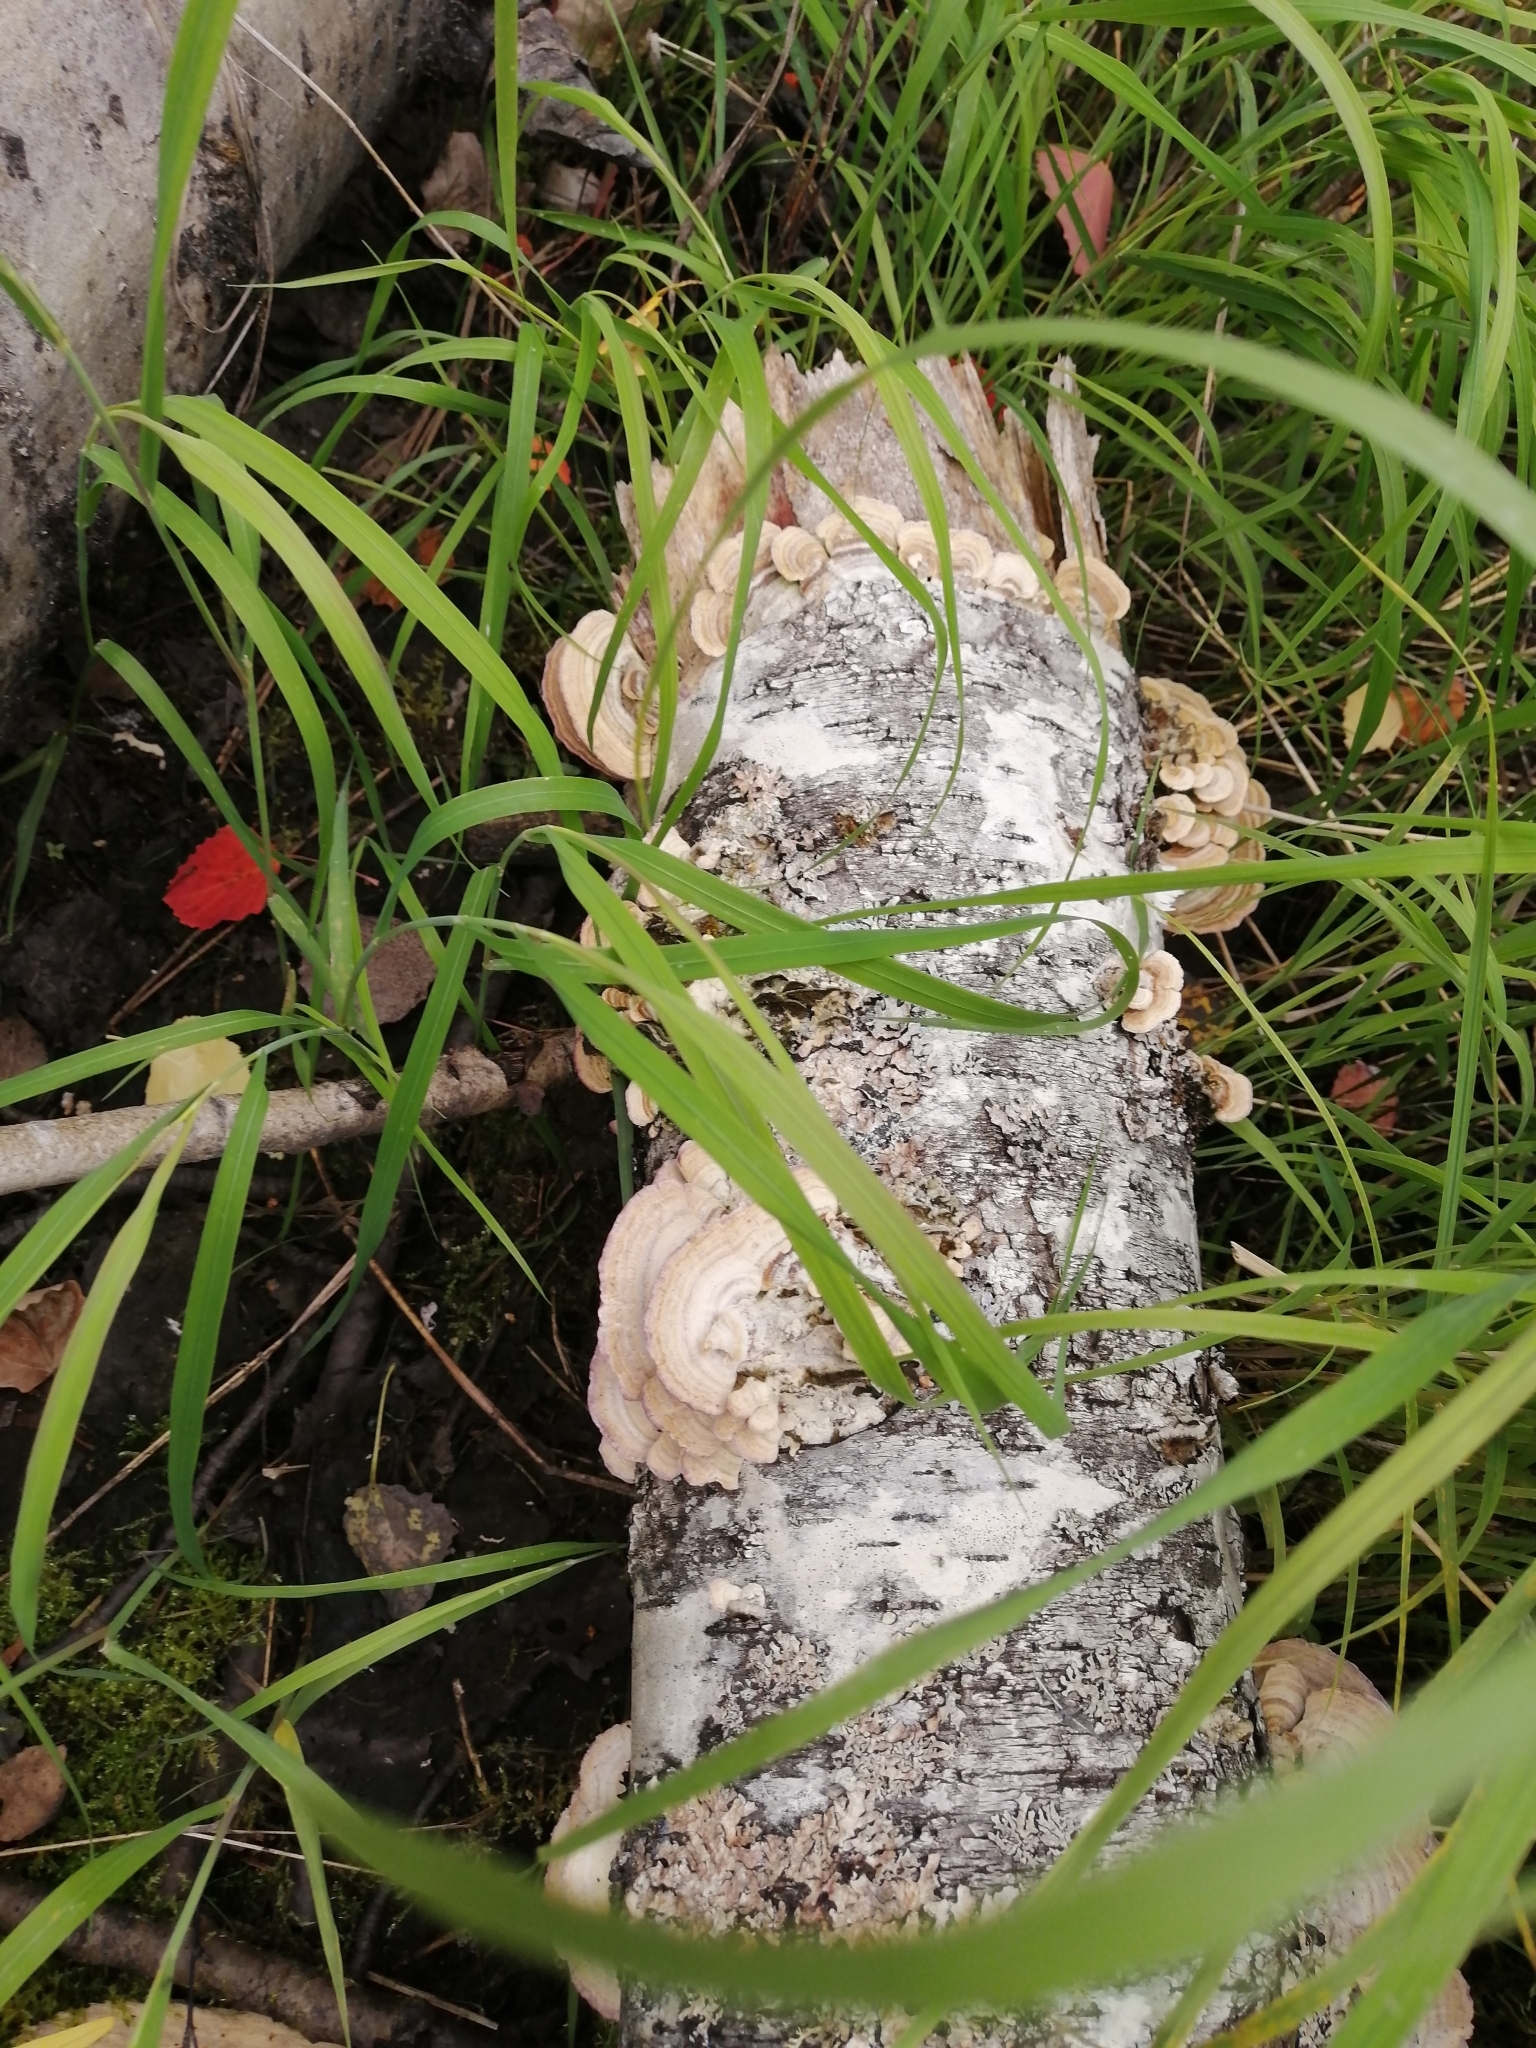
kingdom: Fungi
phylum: Basidiomycota
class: Agaricomycetes
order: Hymenochaetales
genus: Trichaptum
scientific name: Trichaptum biforme
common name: Violet-toothed polypore
